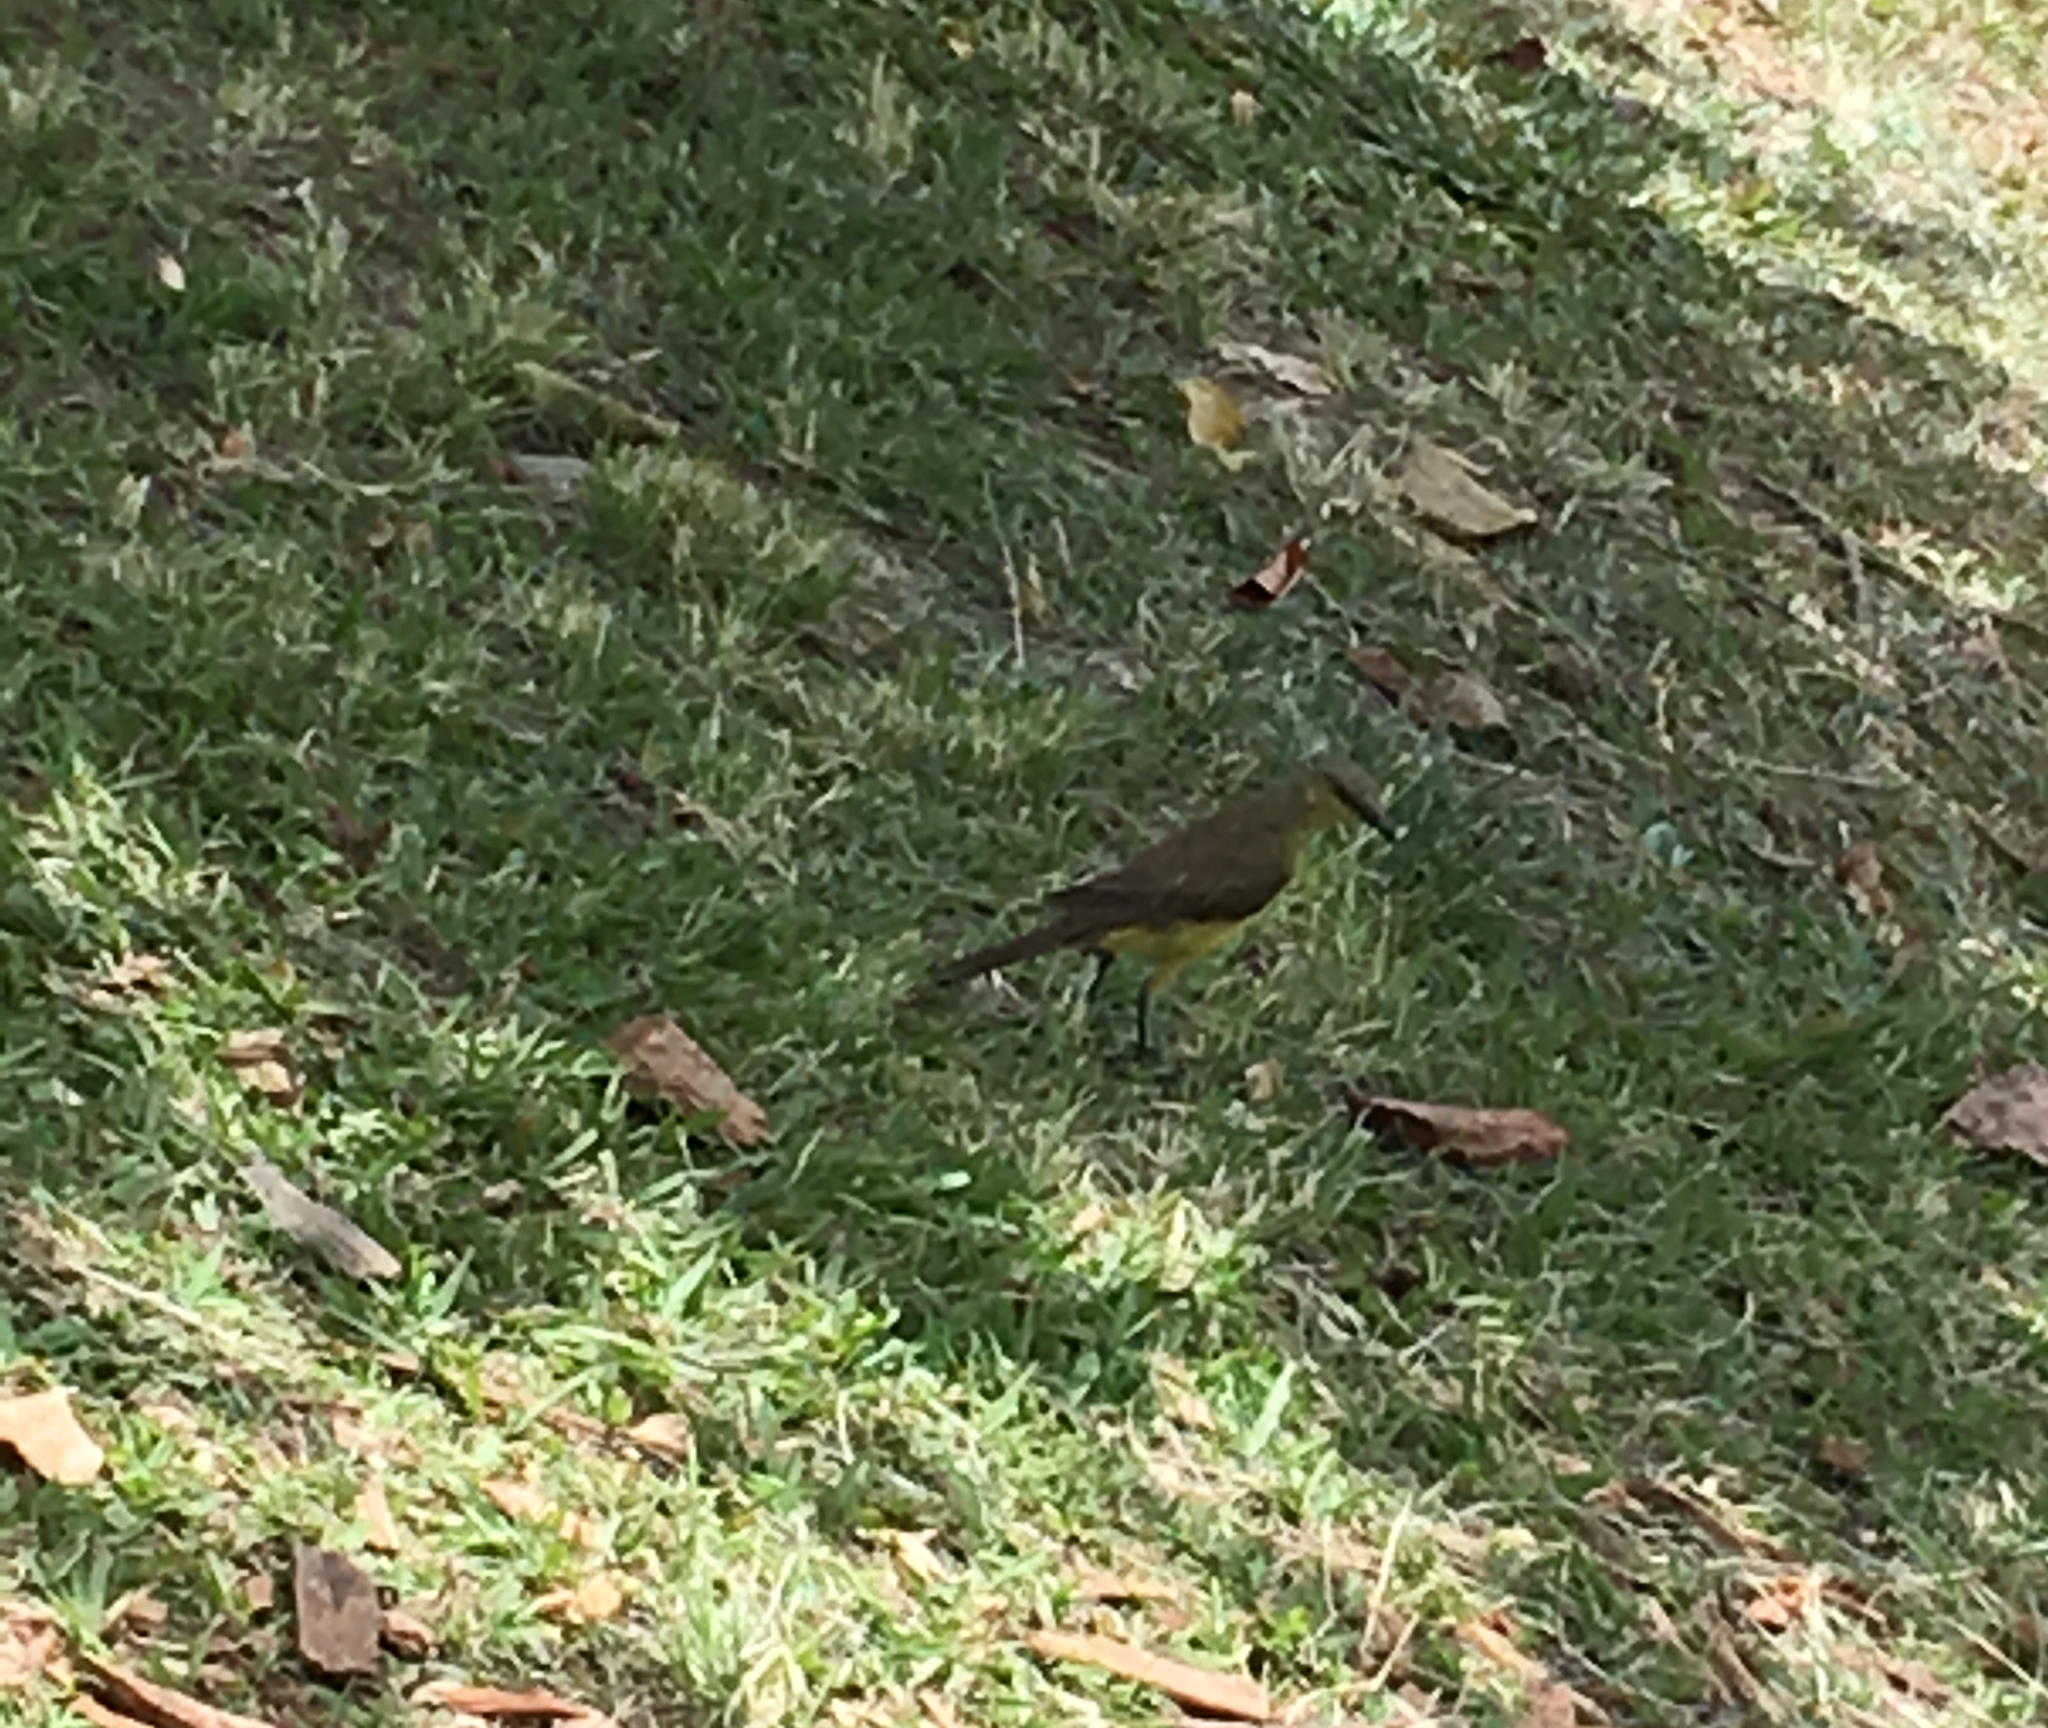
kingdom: Animalia
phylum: Chordata
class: Aves
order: Passeriformes
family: Tyrannidae
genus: Machetornis
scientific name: Machetornis rixosa
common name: Cattle tyrant
